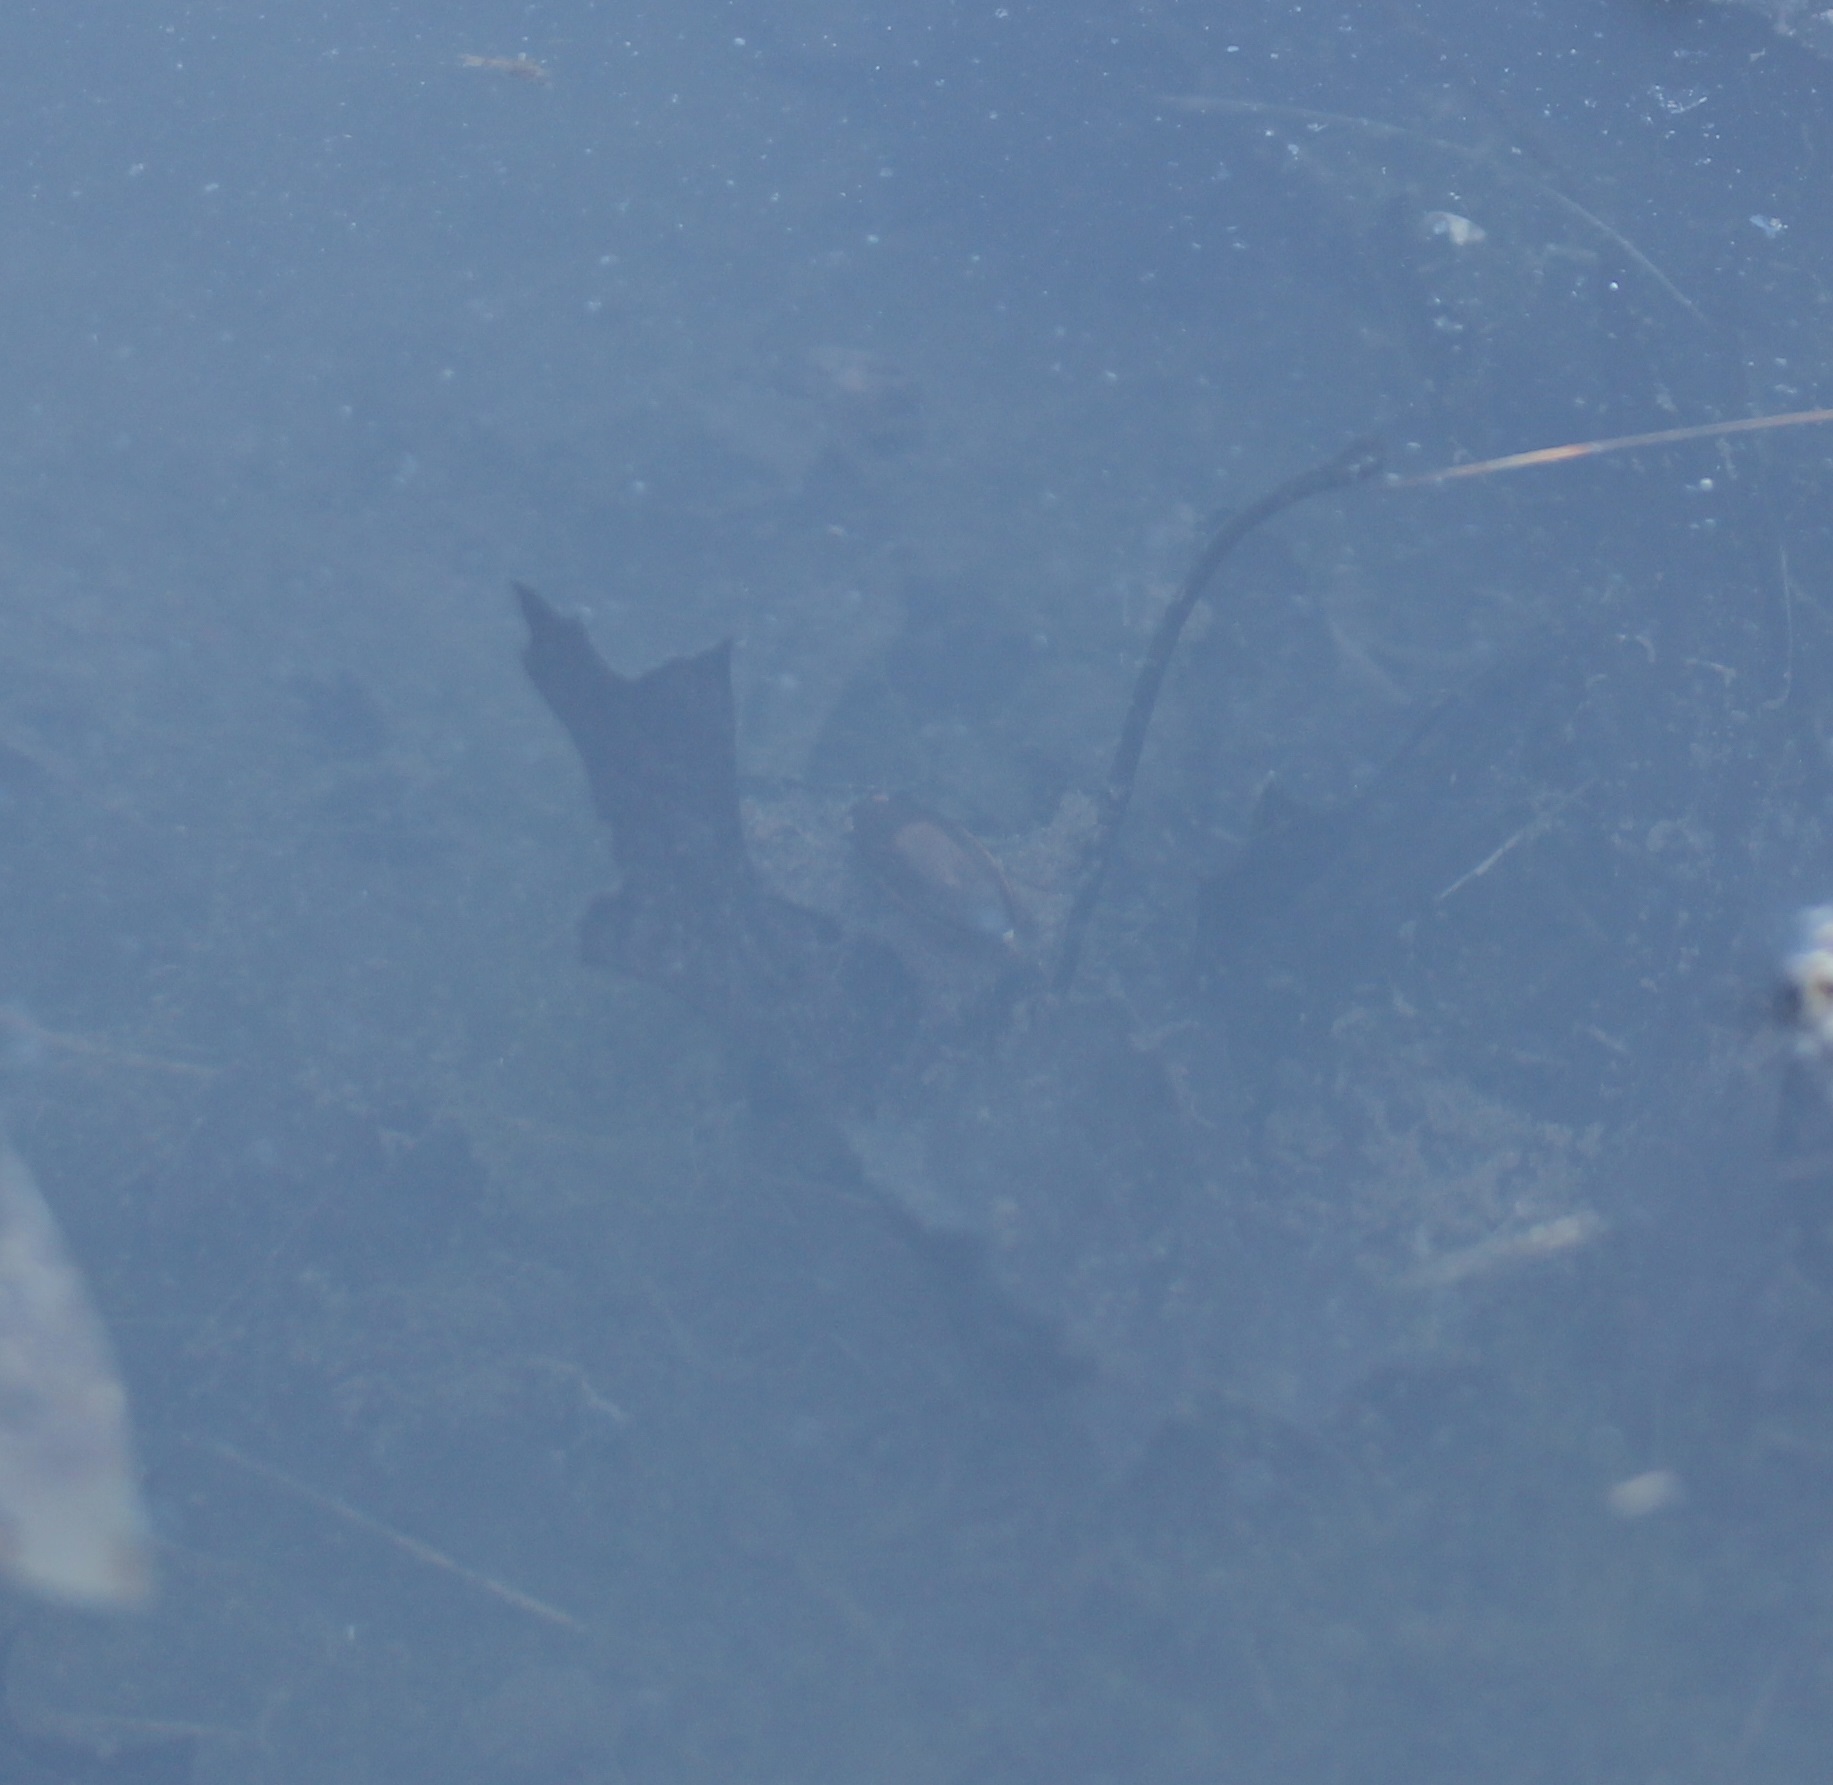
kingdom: Animalia
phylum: Arthropoda
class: Insecta
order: Coleoptera
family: Hydrophilidae
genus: Tropisternus
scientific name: Tropisternus lateralis
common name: Lateral-banded water scavenger beetle
